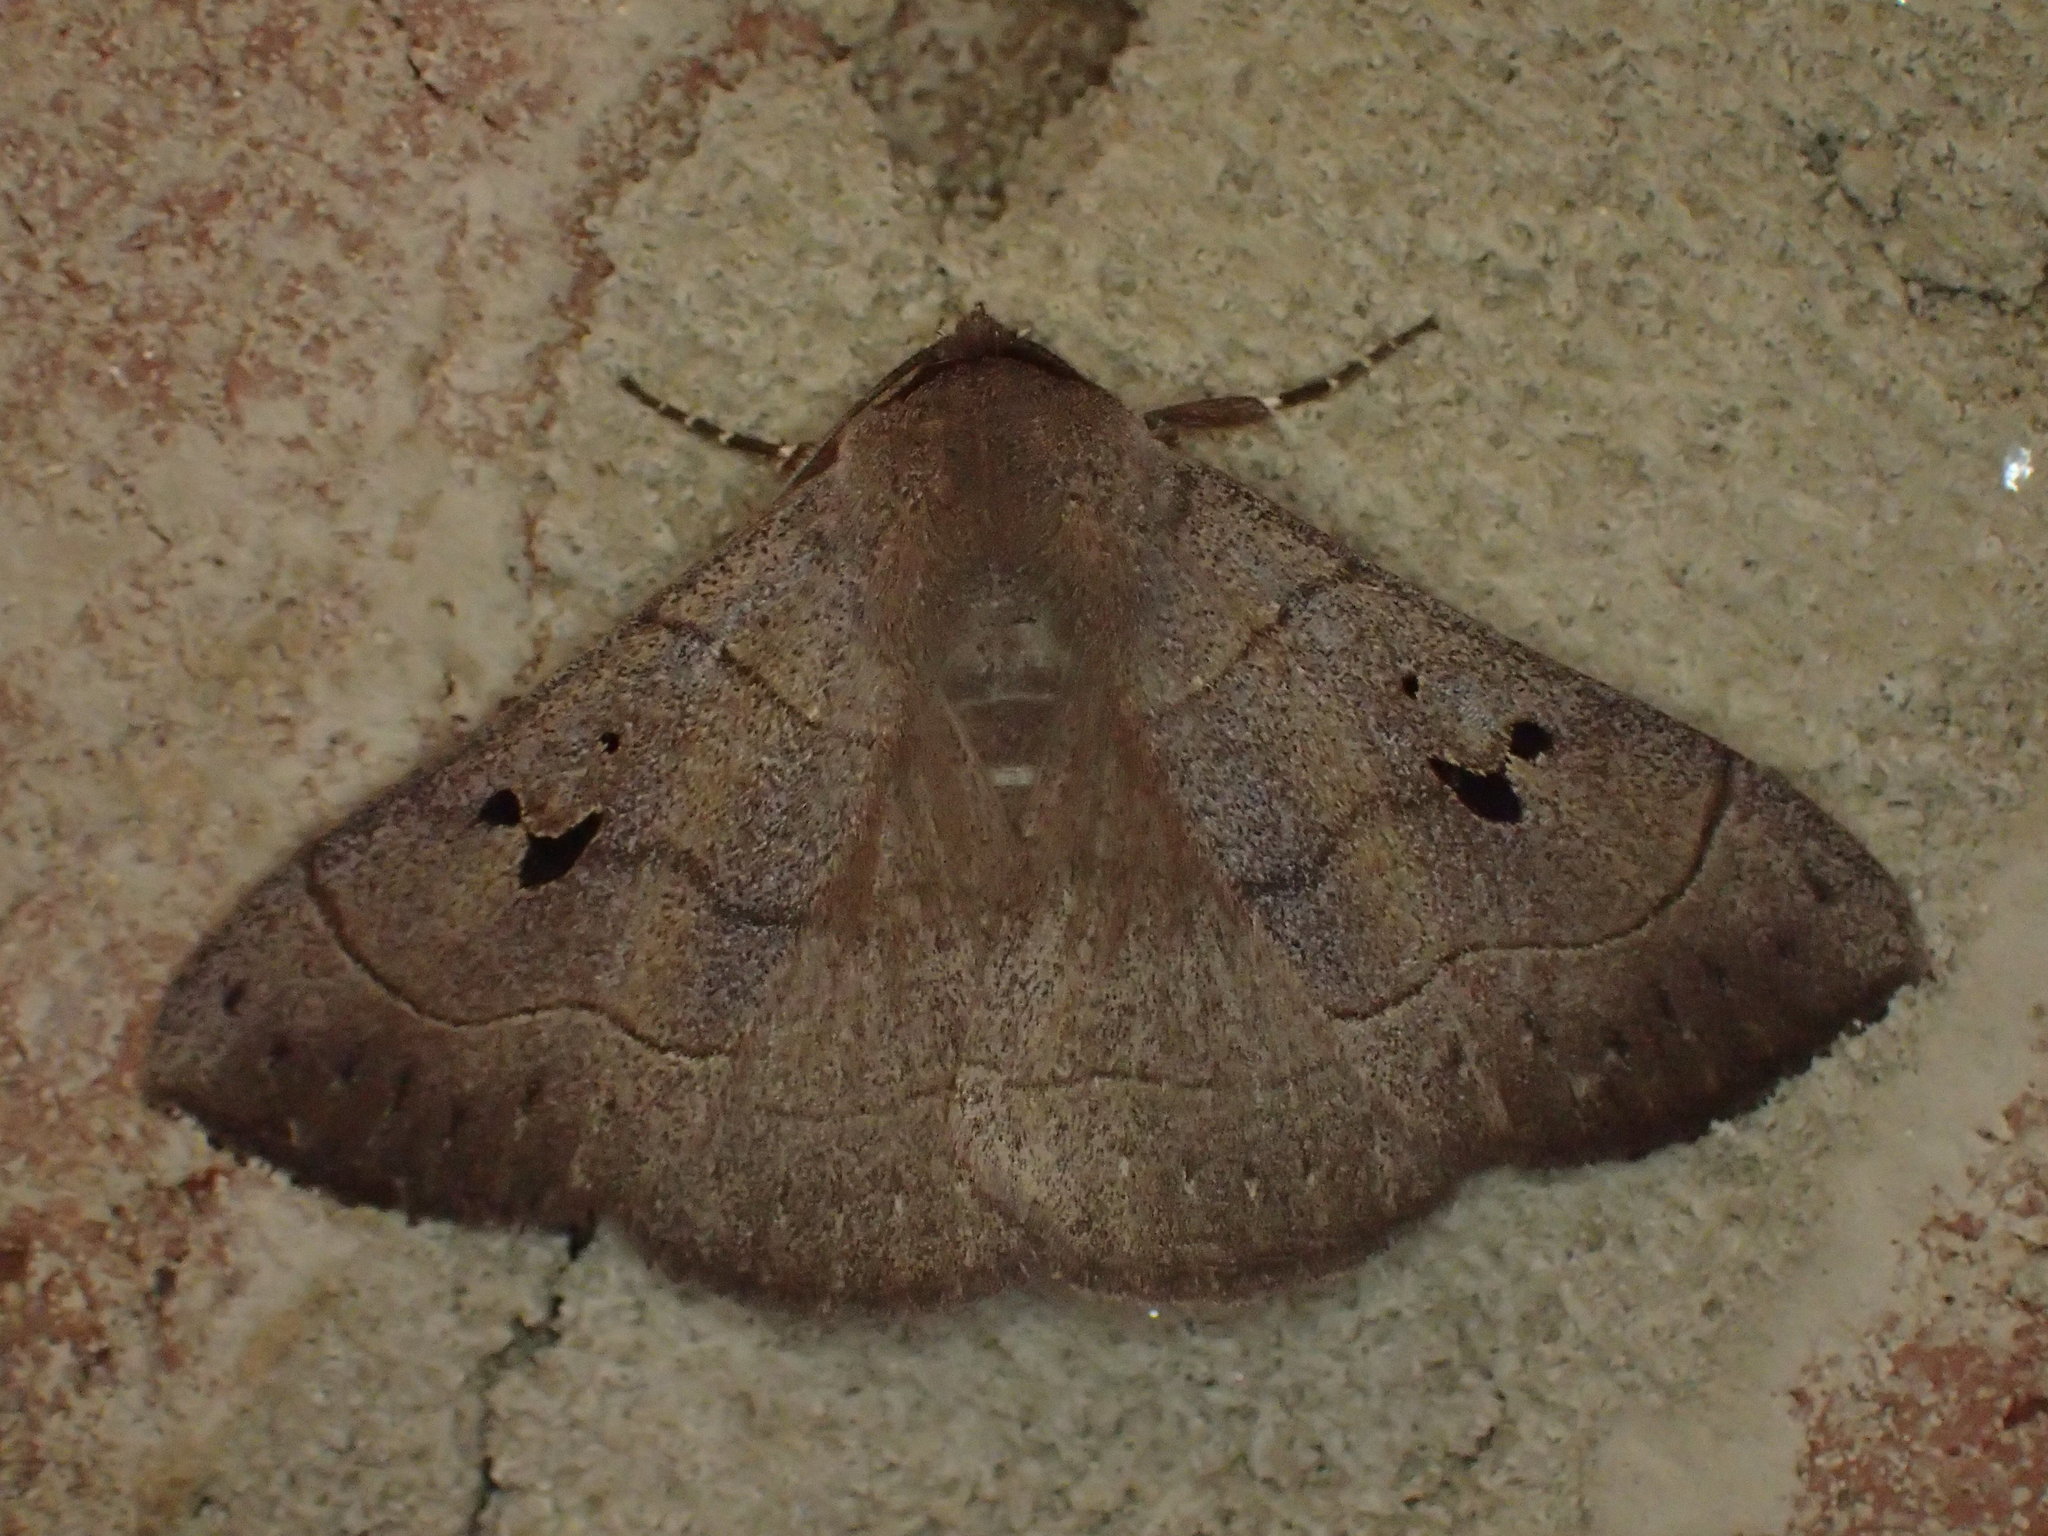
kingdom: Animalia
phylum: Arthropoda
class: Insecta
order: Lepidoptera
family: Erebidae
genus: Panopoda
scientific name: Panopoda carneicosta
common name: Brown panopoda moth
